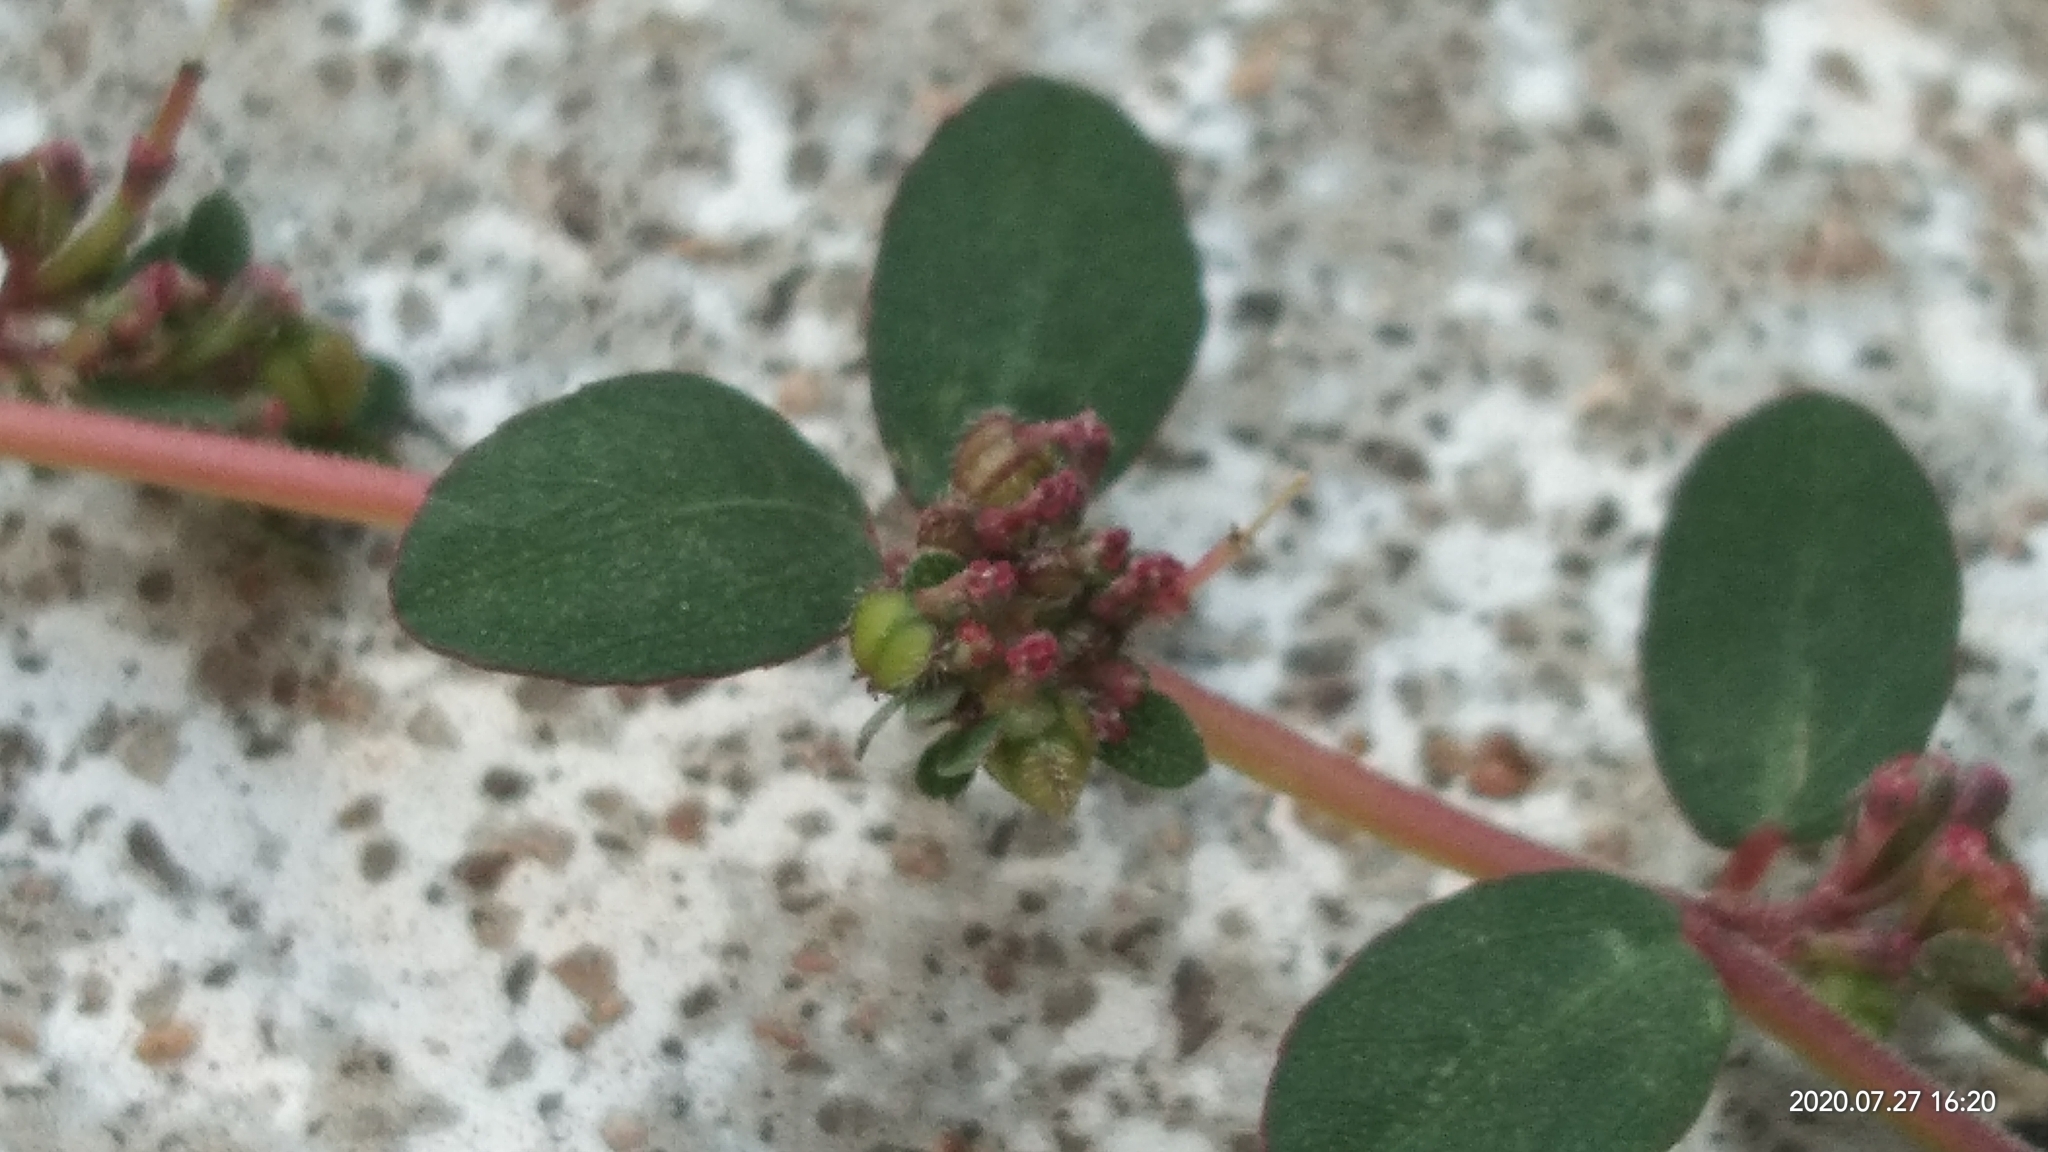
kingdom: Plantae
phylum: Tracheophyta
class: Magnoliopsida
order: Malpighiales
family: Euphorbiaceae
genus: Euphorbia
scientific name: Euphorbia prostrata
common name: Prostrate sandmat
